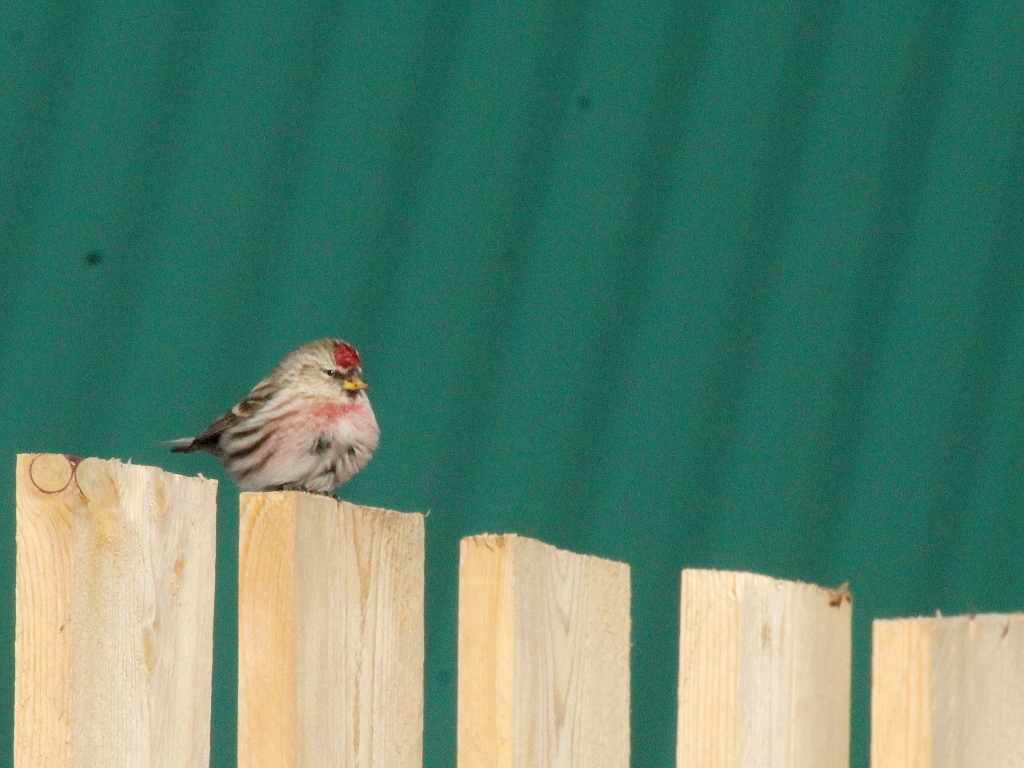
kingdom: Animalia
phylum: Chordata
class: Aves
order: Passeriformes
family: Fringillidae
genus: Acanthis
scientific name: Acanthis flammea
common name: Common redpoll
